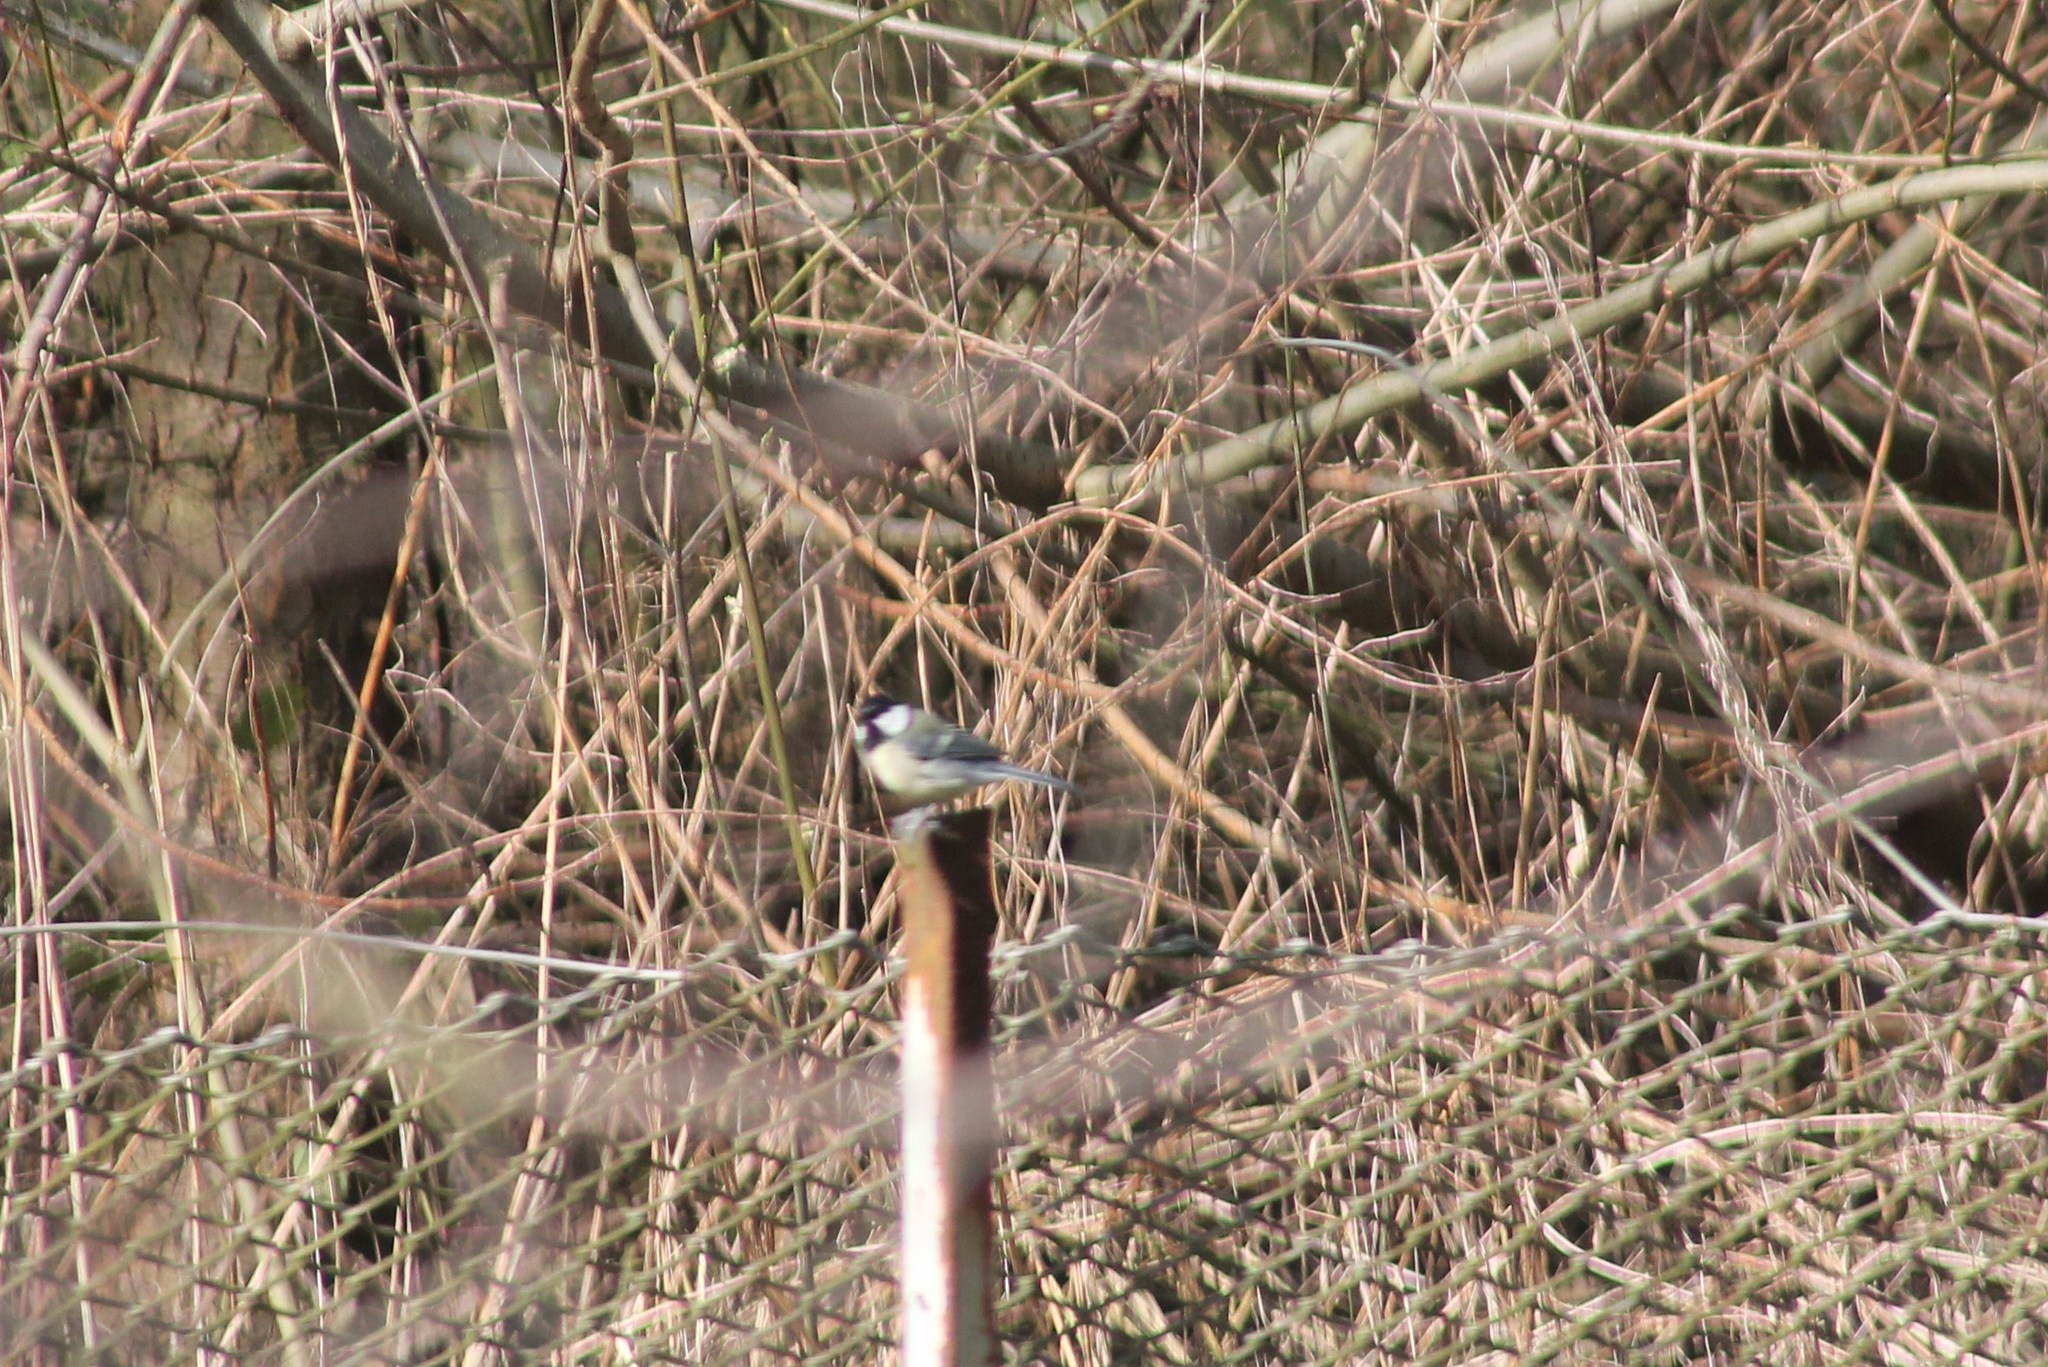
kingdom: Animalia
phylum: Chordata
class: Aves
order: Passeriformes
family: Paridae
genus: Parus
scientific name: Parus major
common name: Great tit
